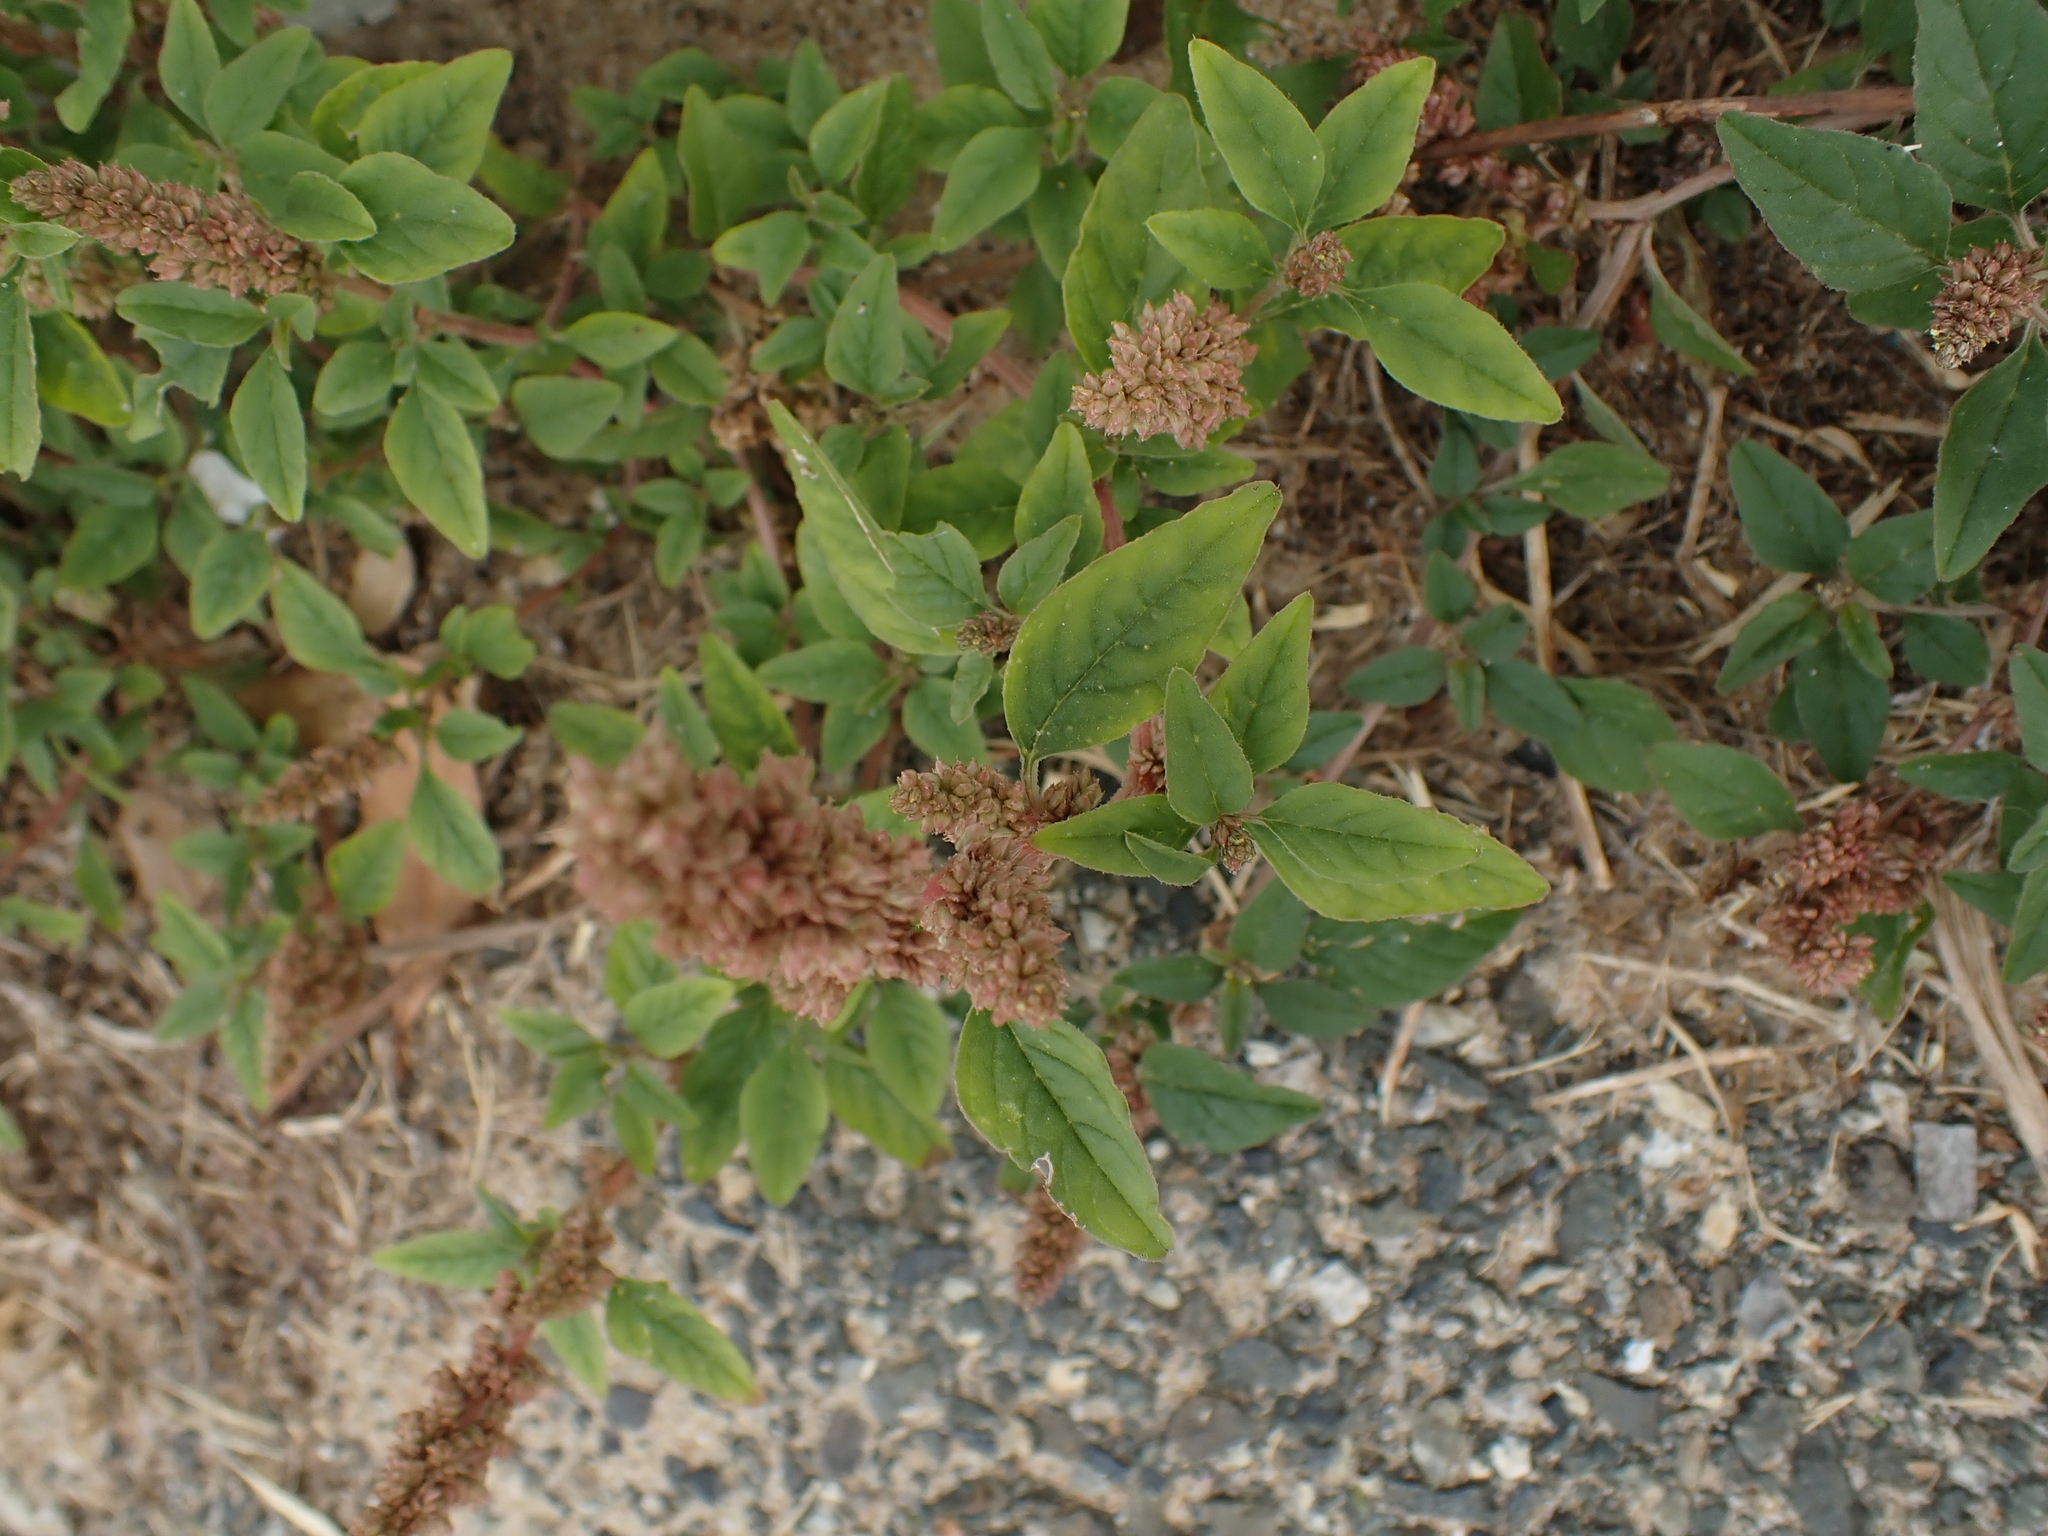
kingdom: Plantae
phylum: Tracheophyta
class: Magnoliopsida
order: Caryophyllales
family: Amaranthaceae
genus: Amaranthus
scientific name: Amaranthus deflexus
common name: Perennial pigweed
